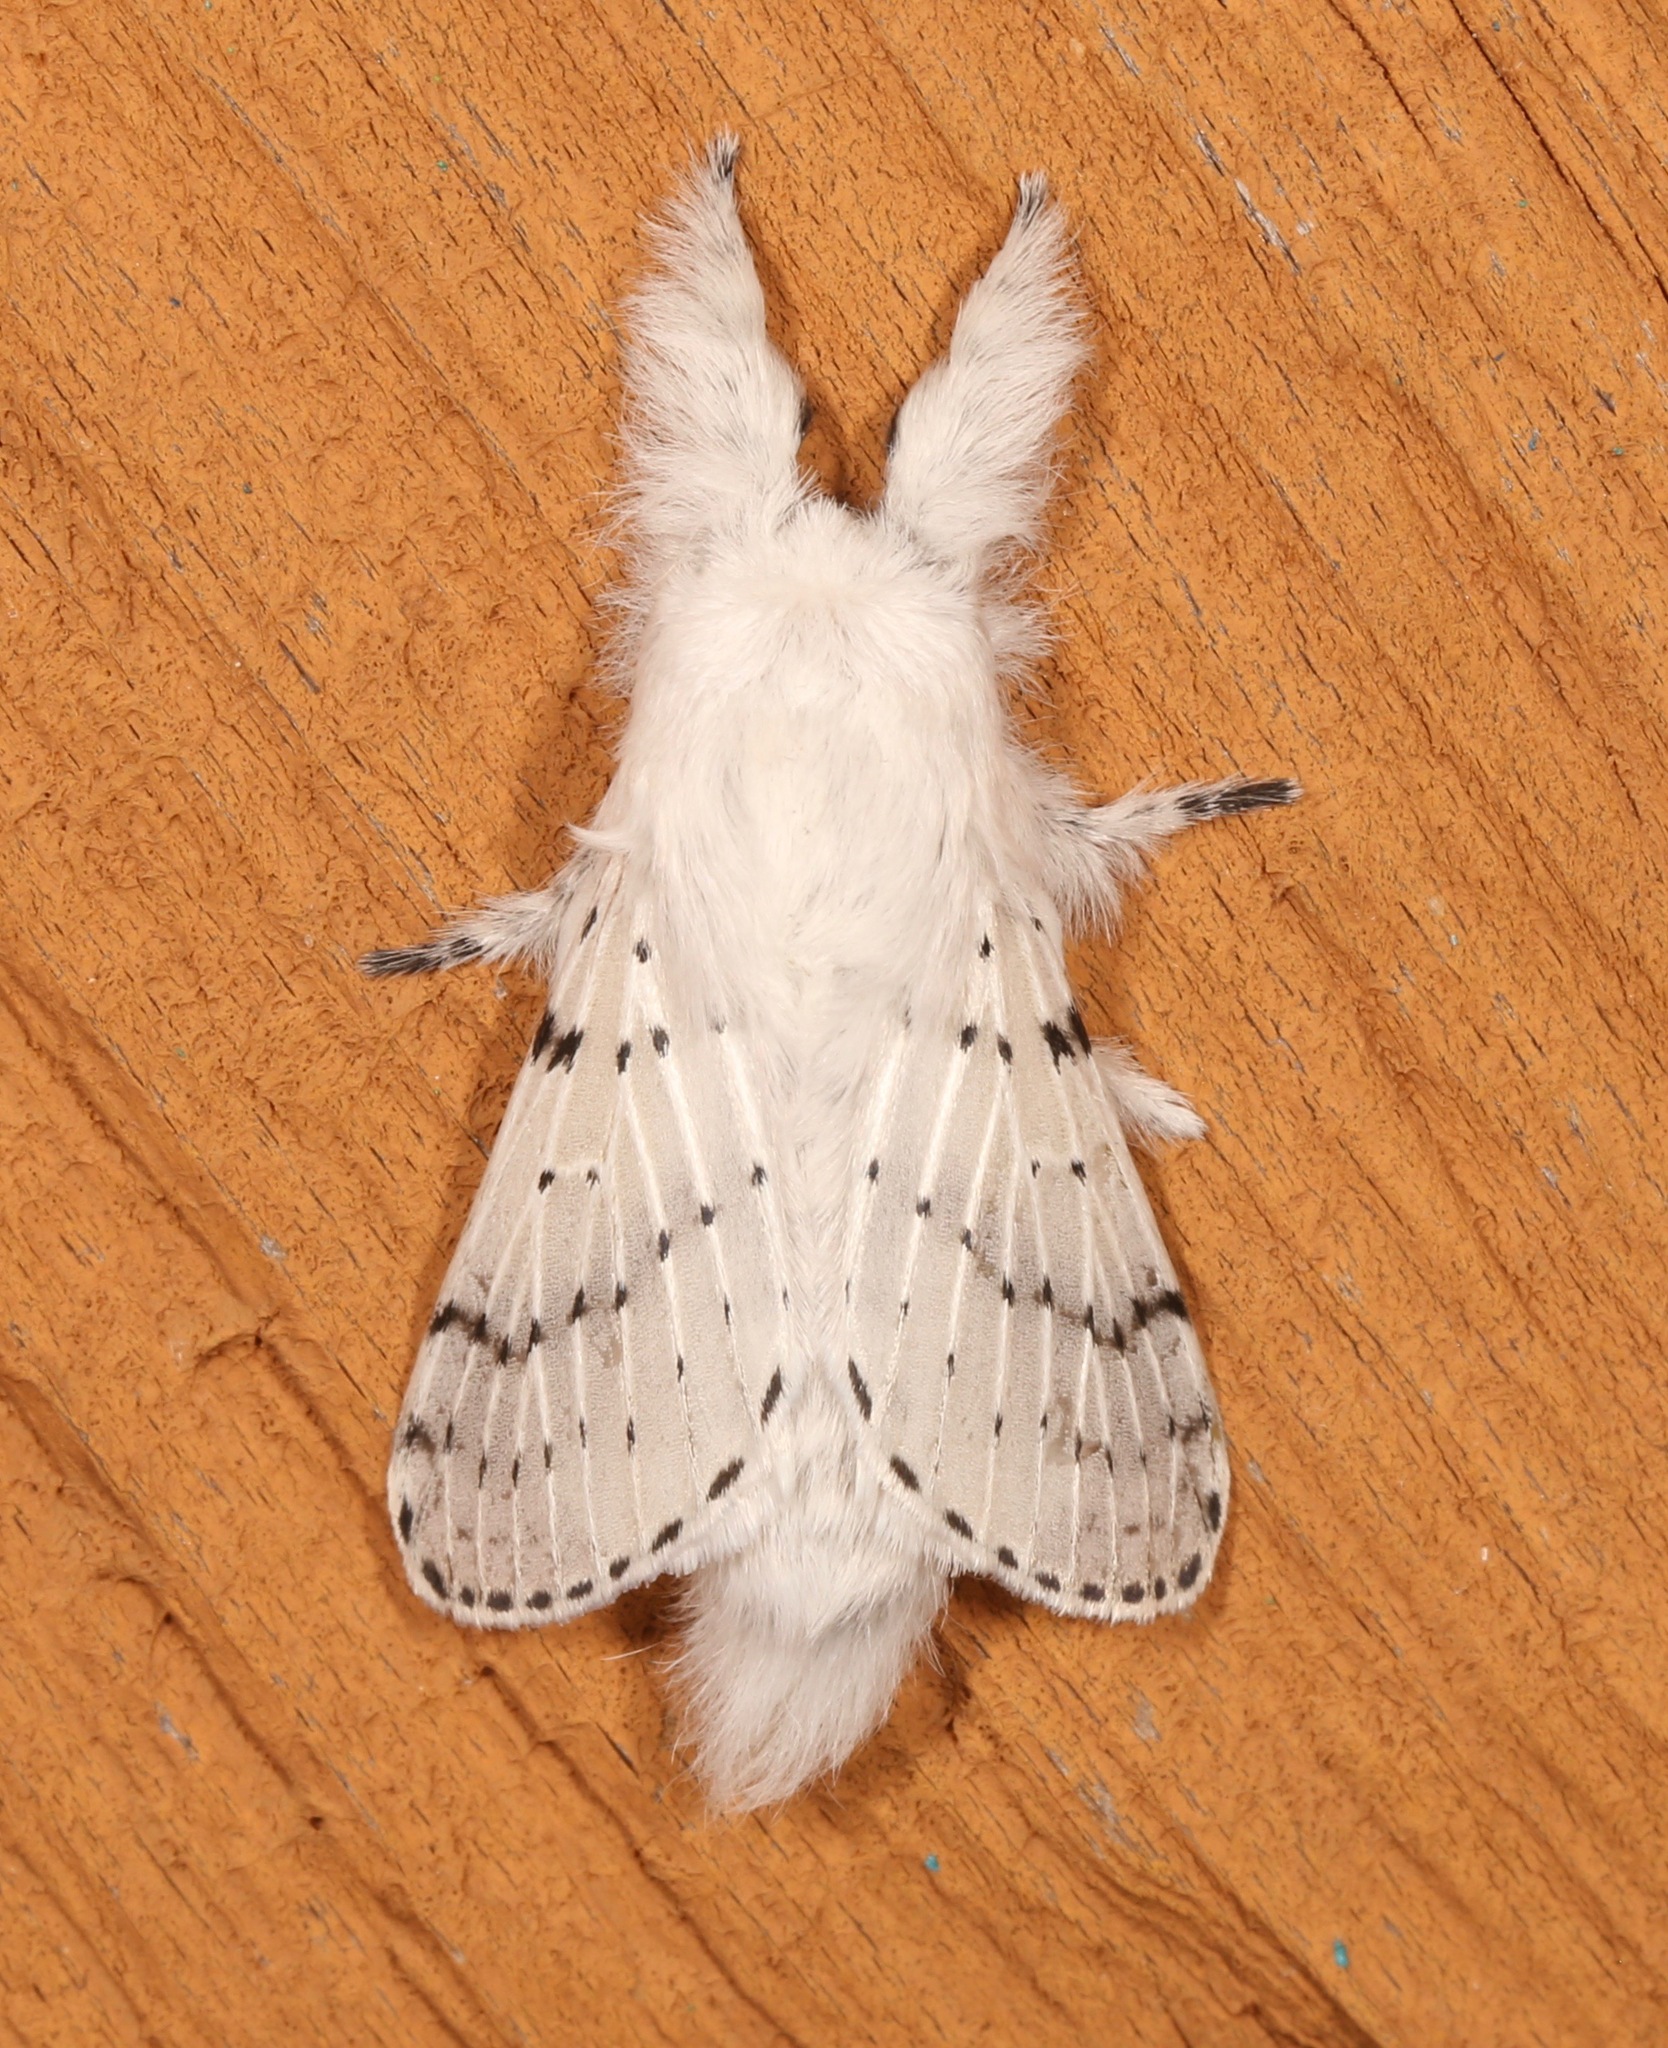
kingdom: Animalia
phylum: Arthropoda
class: Insecta
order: Lepidoptera
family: Lasiocampidae
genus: Artace
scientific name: Artace cribrarius
